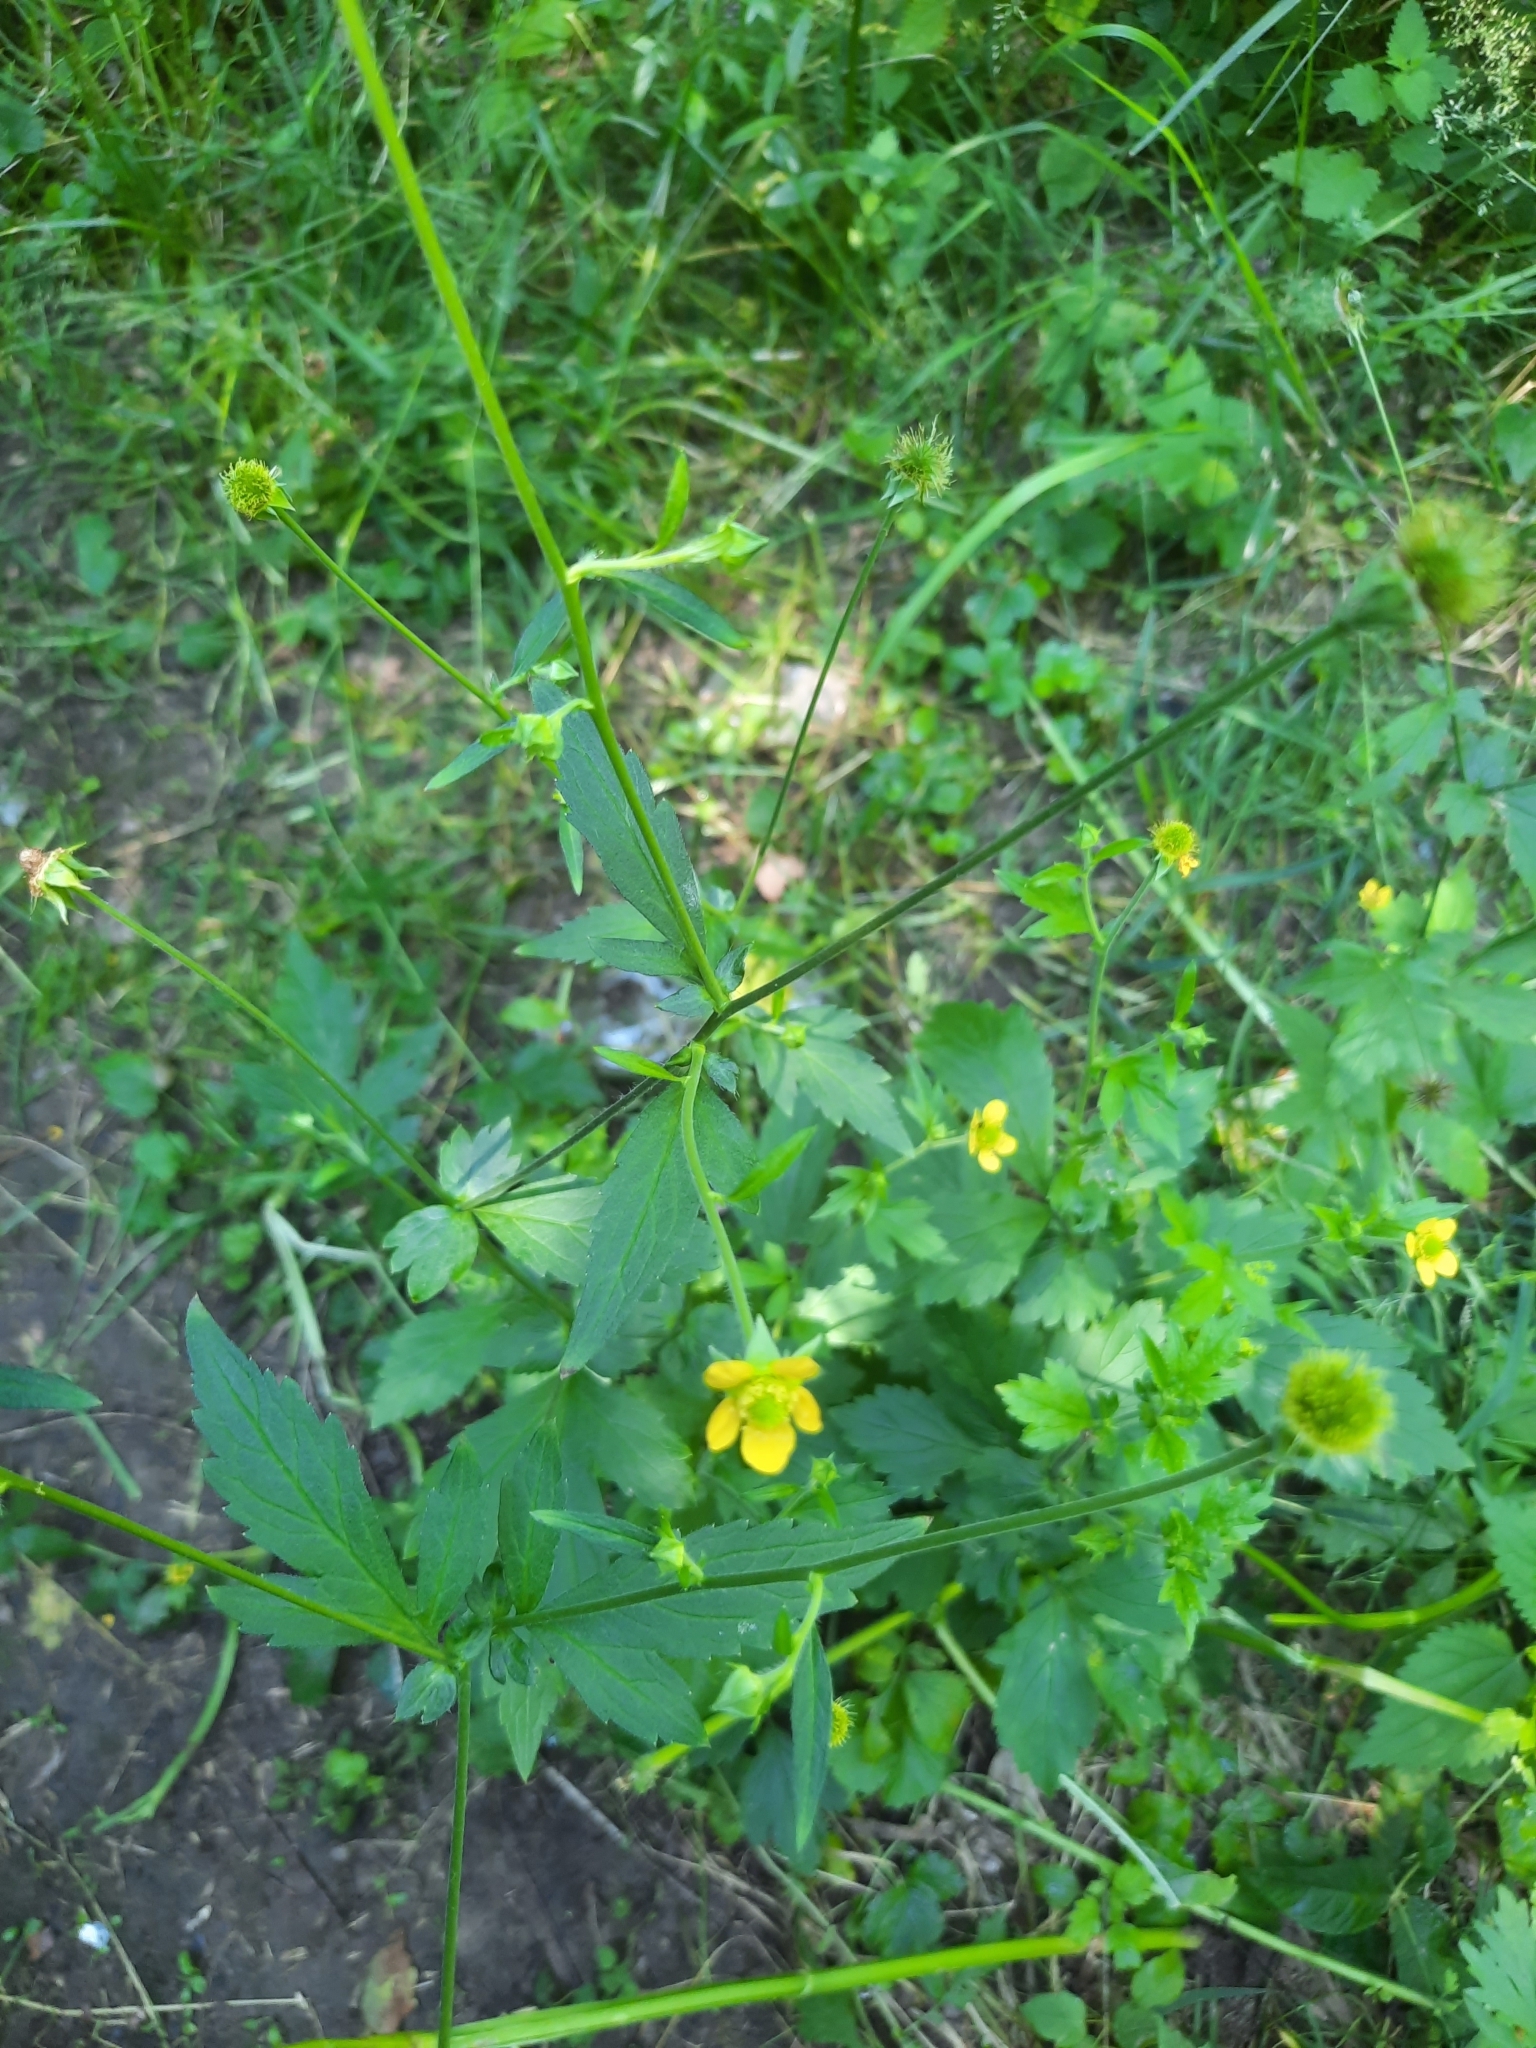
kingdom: Plantae
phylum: Tracheophyta
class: Magnoliopsida
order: Rosales
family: Rosaceae
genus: Geum
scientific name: Geum aleppicum
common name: Yellow avens
